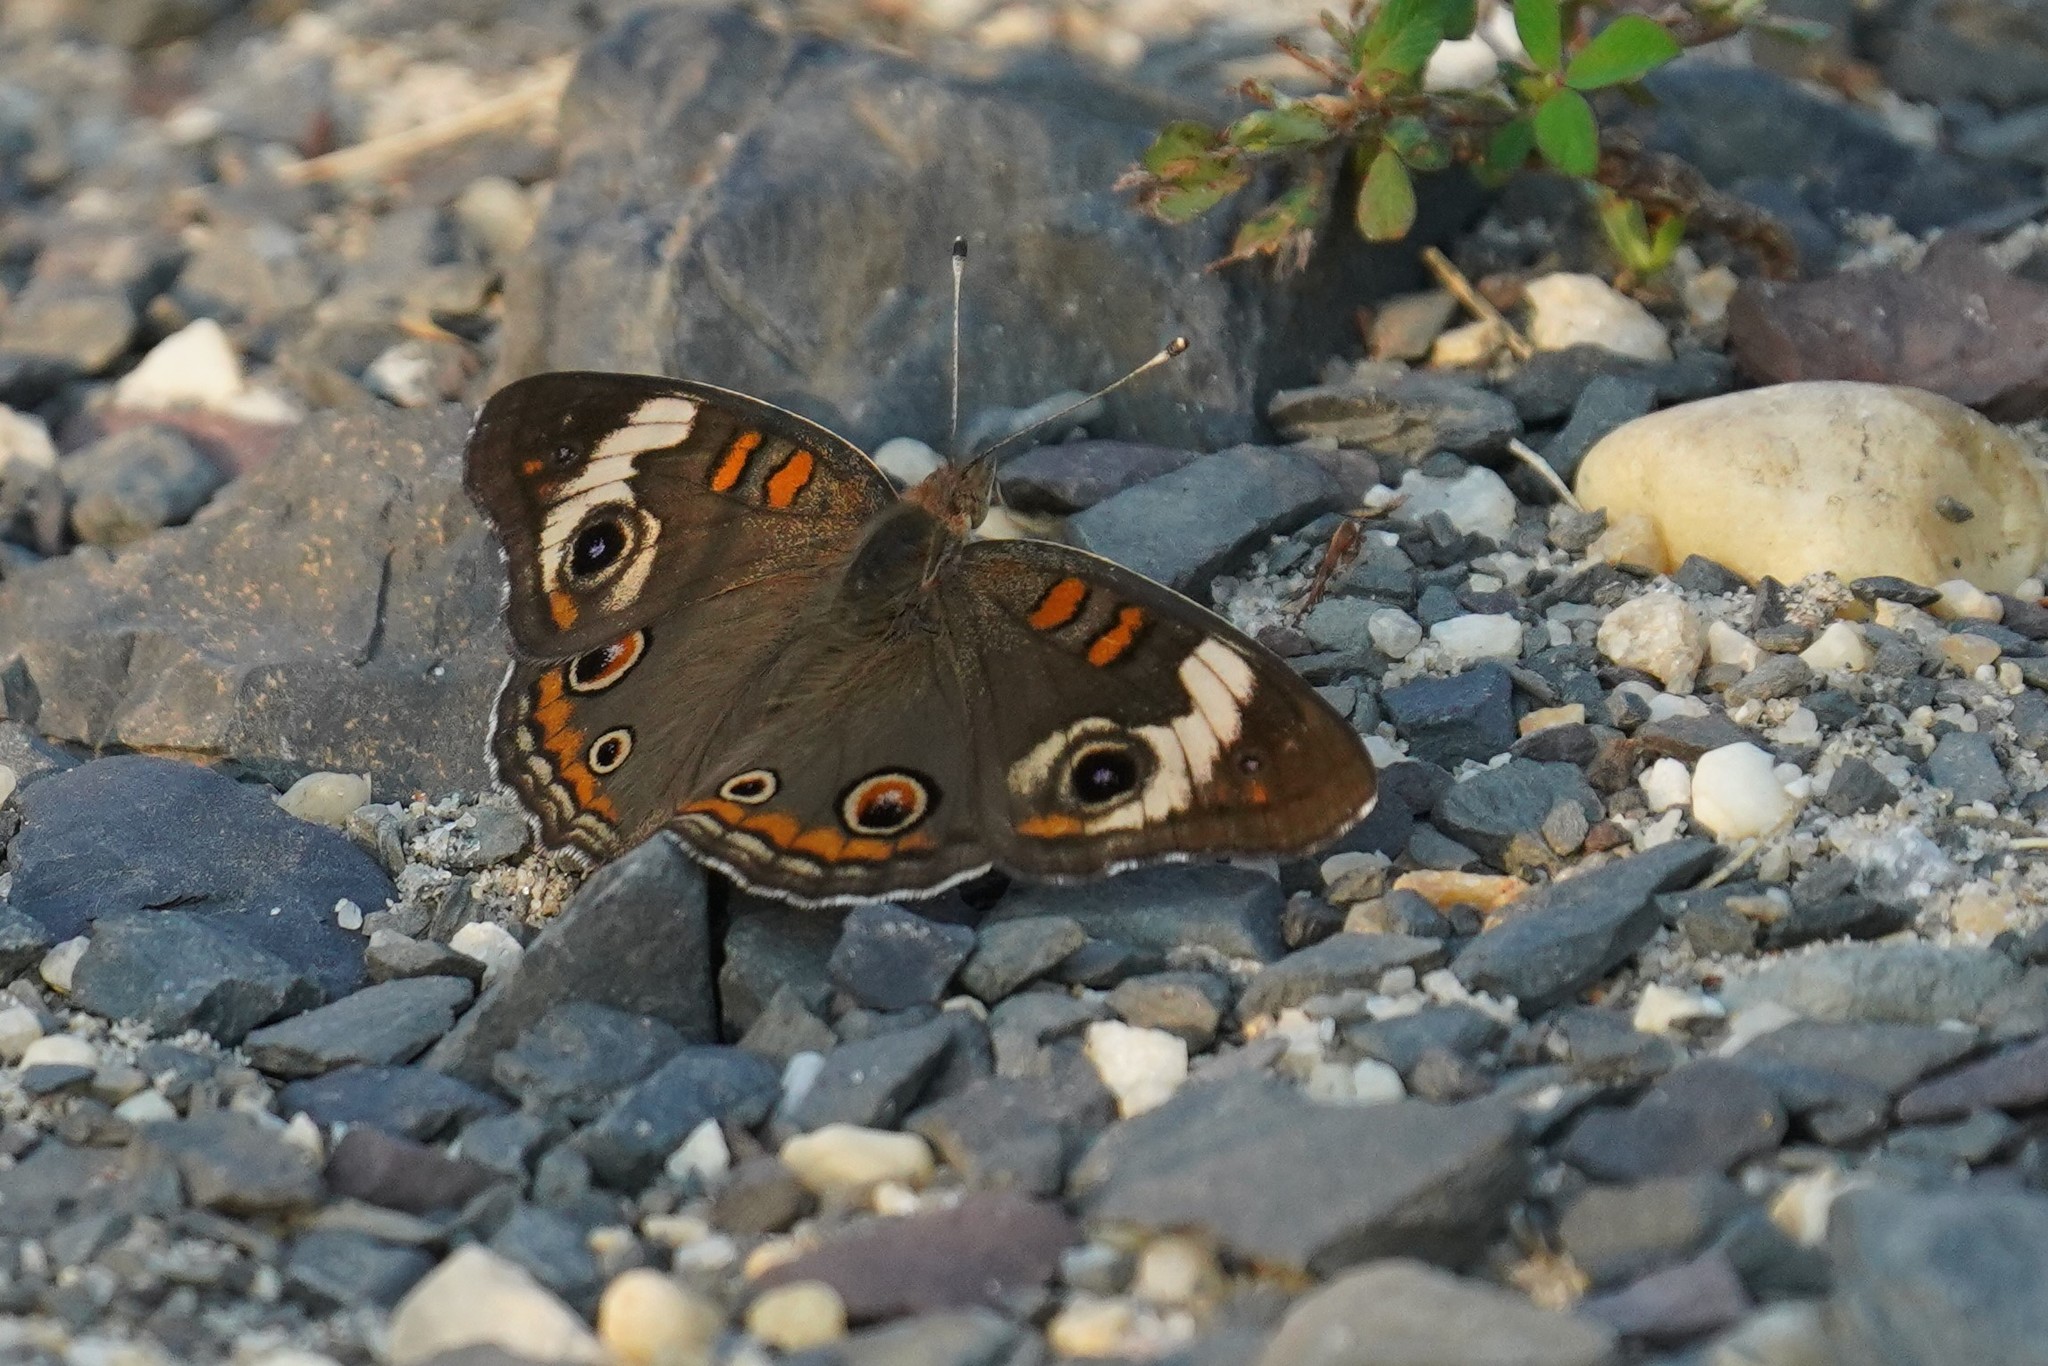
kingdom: Animalia
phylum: Arthropoda
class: Insecta
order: Lepidoptera
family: Nymphalidae
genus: Junonia
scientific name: Junonia coenia
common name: Common buckeye
